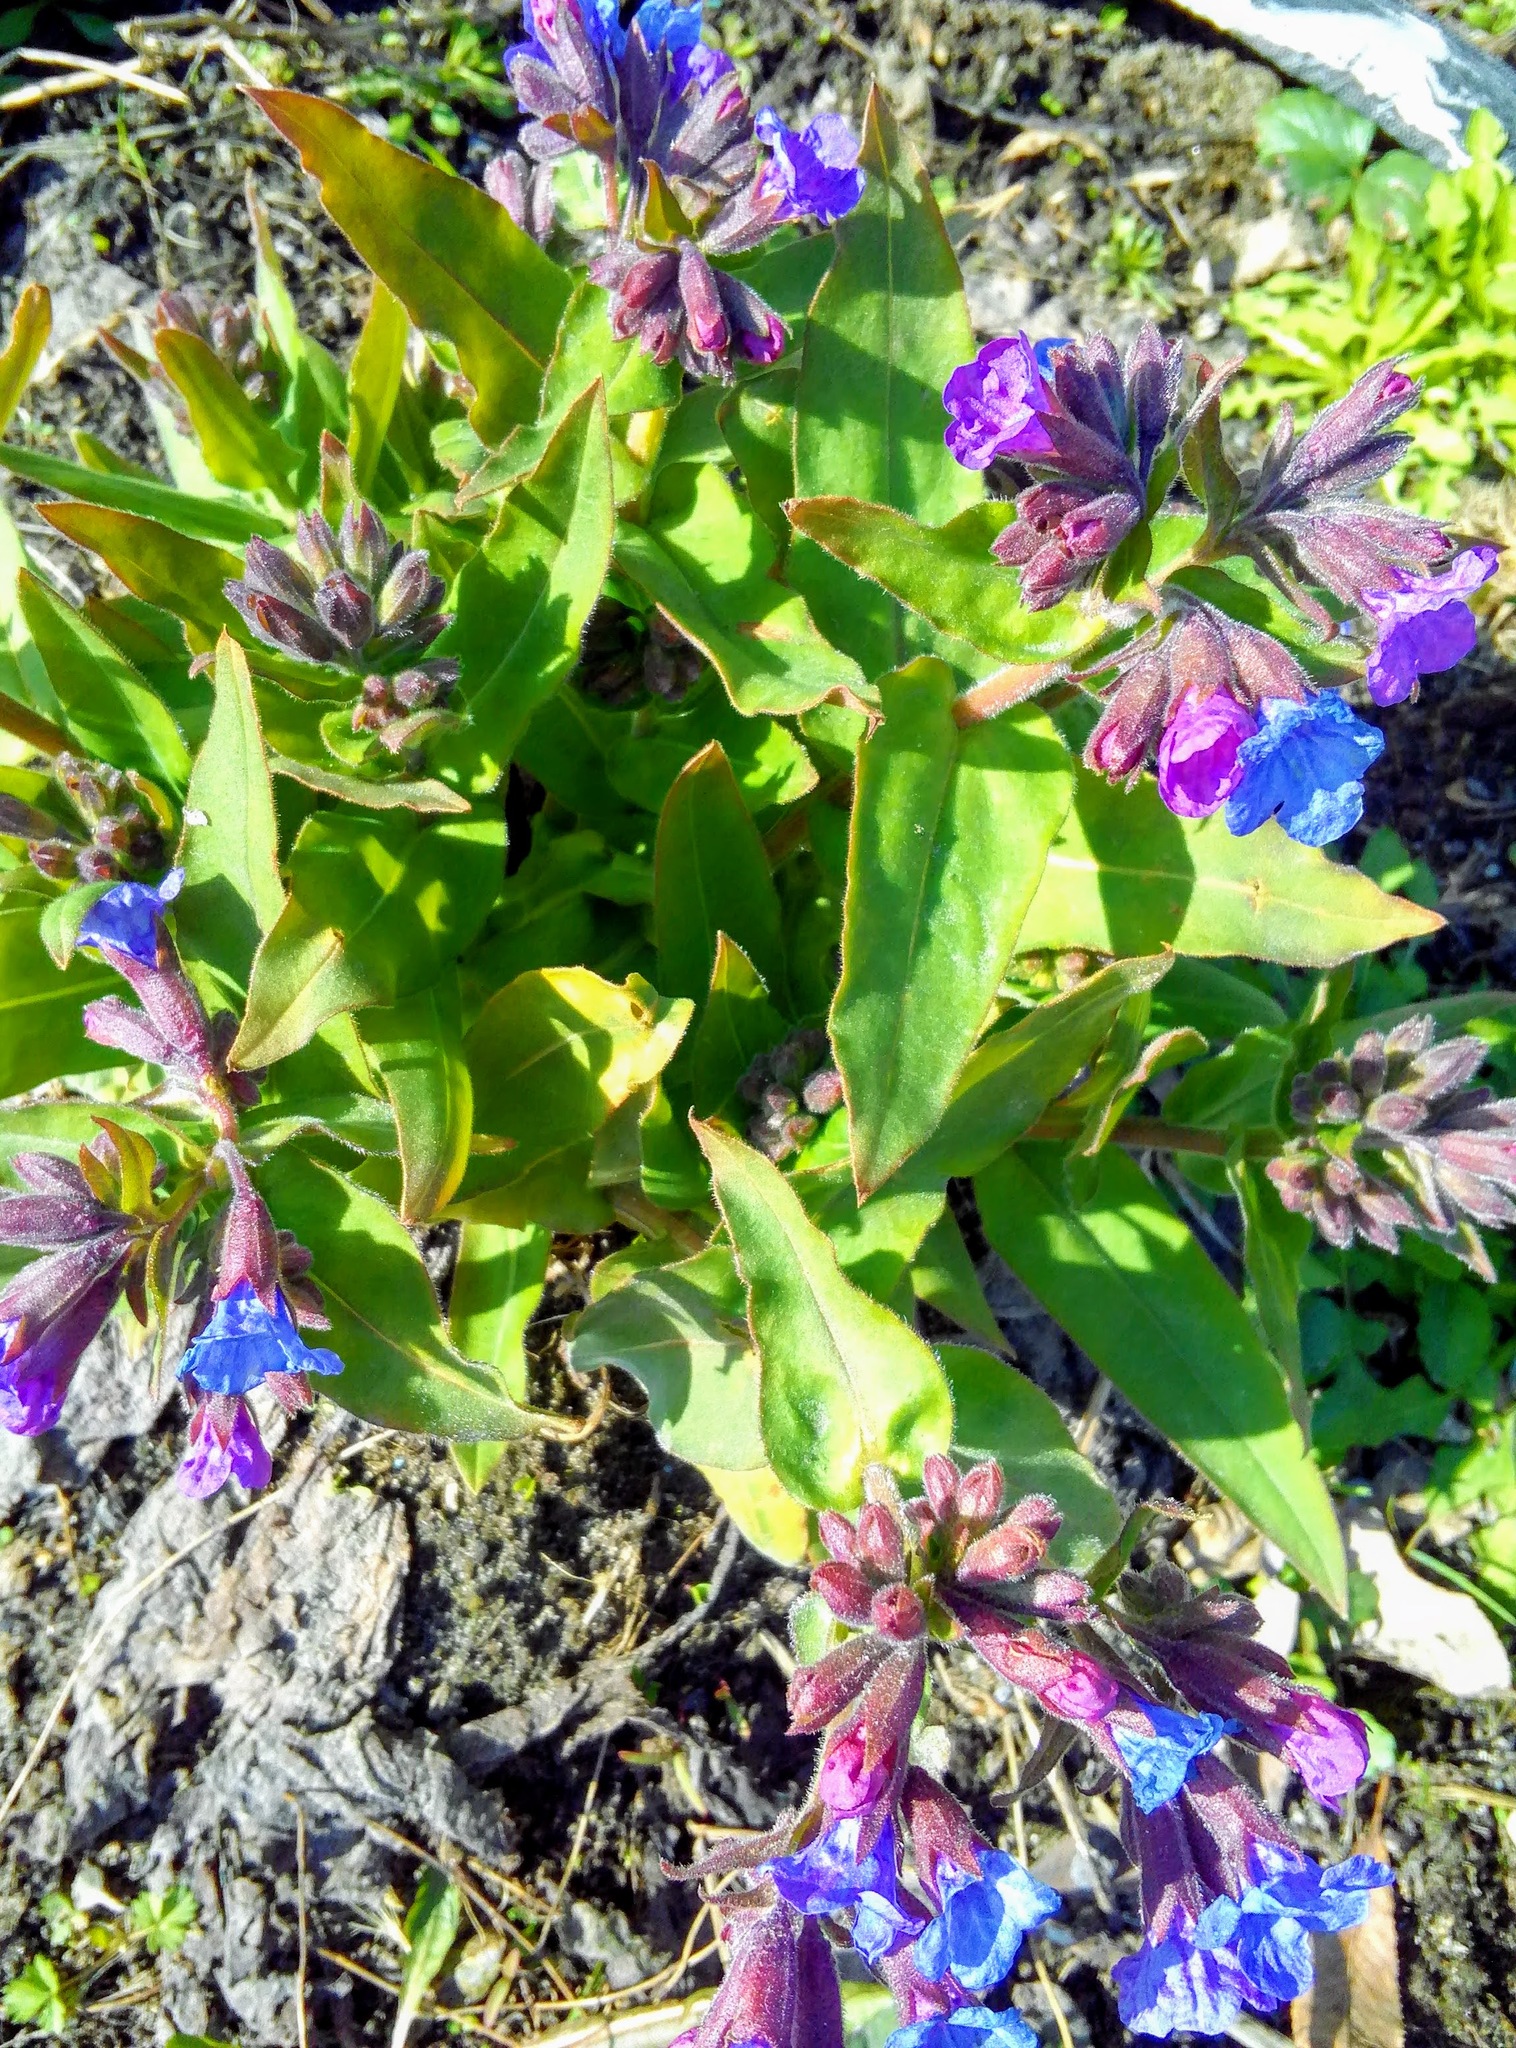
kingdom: Plantae
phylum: Tracheophyta
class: Magnoliopsida
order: Boraginales
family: Boraginaceae
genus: Pulmonaria
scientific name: Pulmonaria mollis
